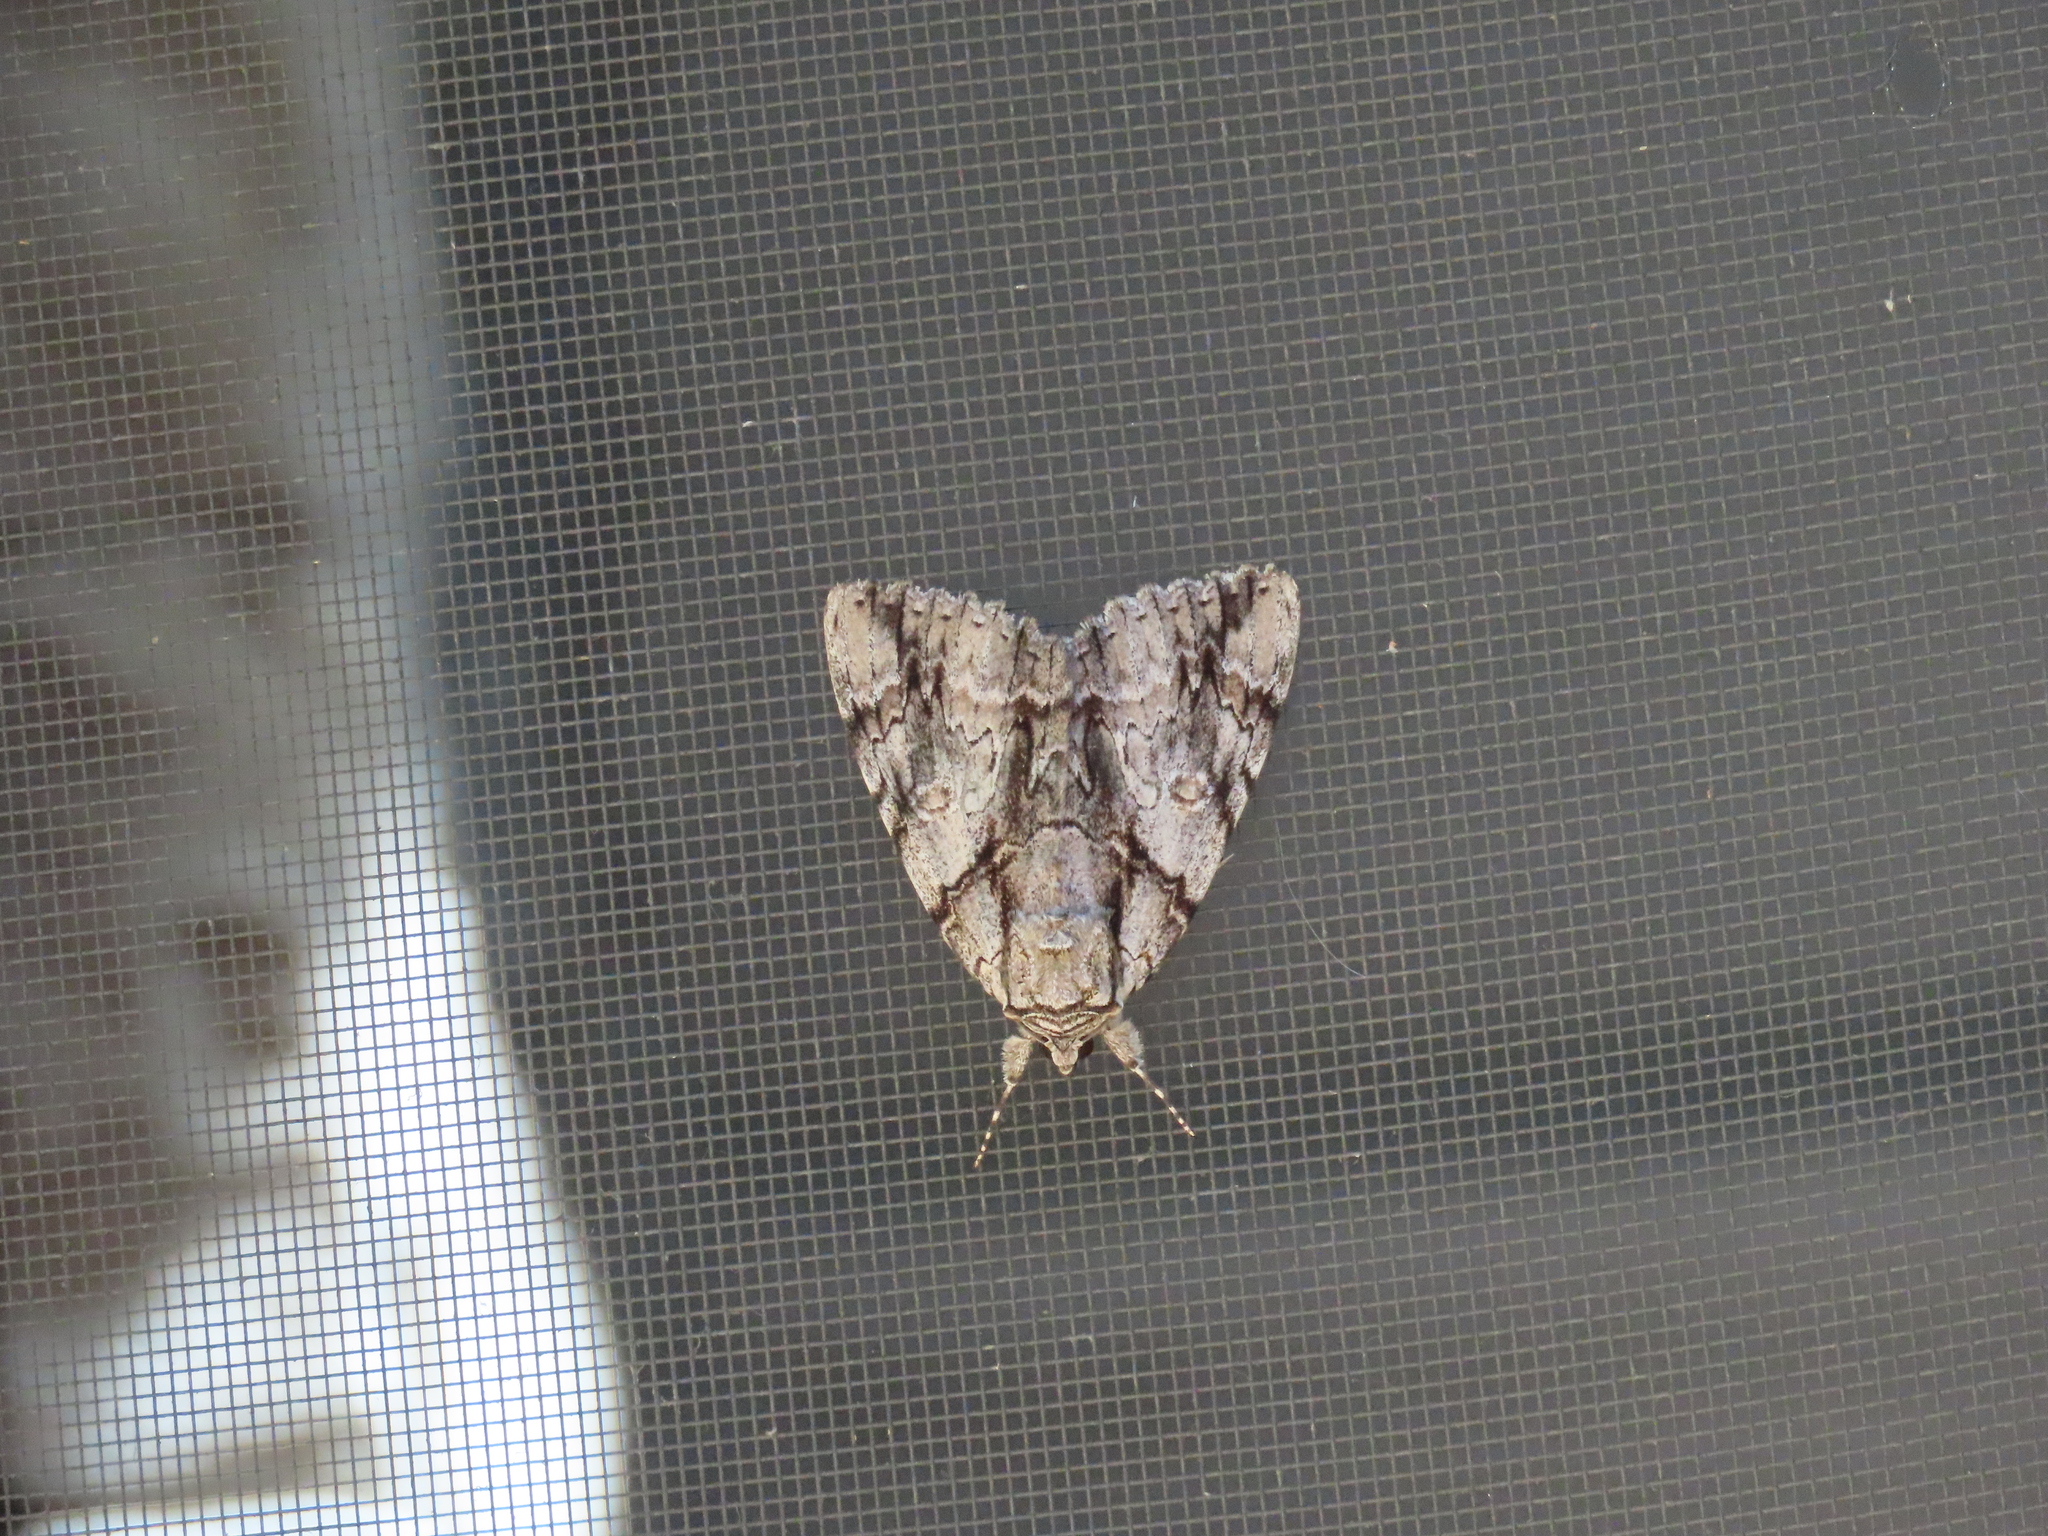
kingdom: Animalia
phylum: Arthropoda
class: Insecta
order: Lepidoptera
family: Erebidae
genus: Catocala
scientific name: Catocala vidua
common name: The widow
